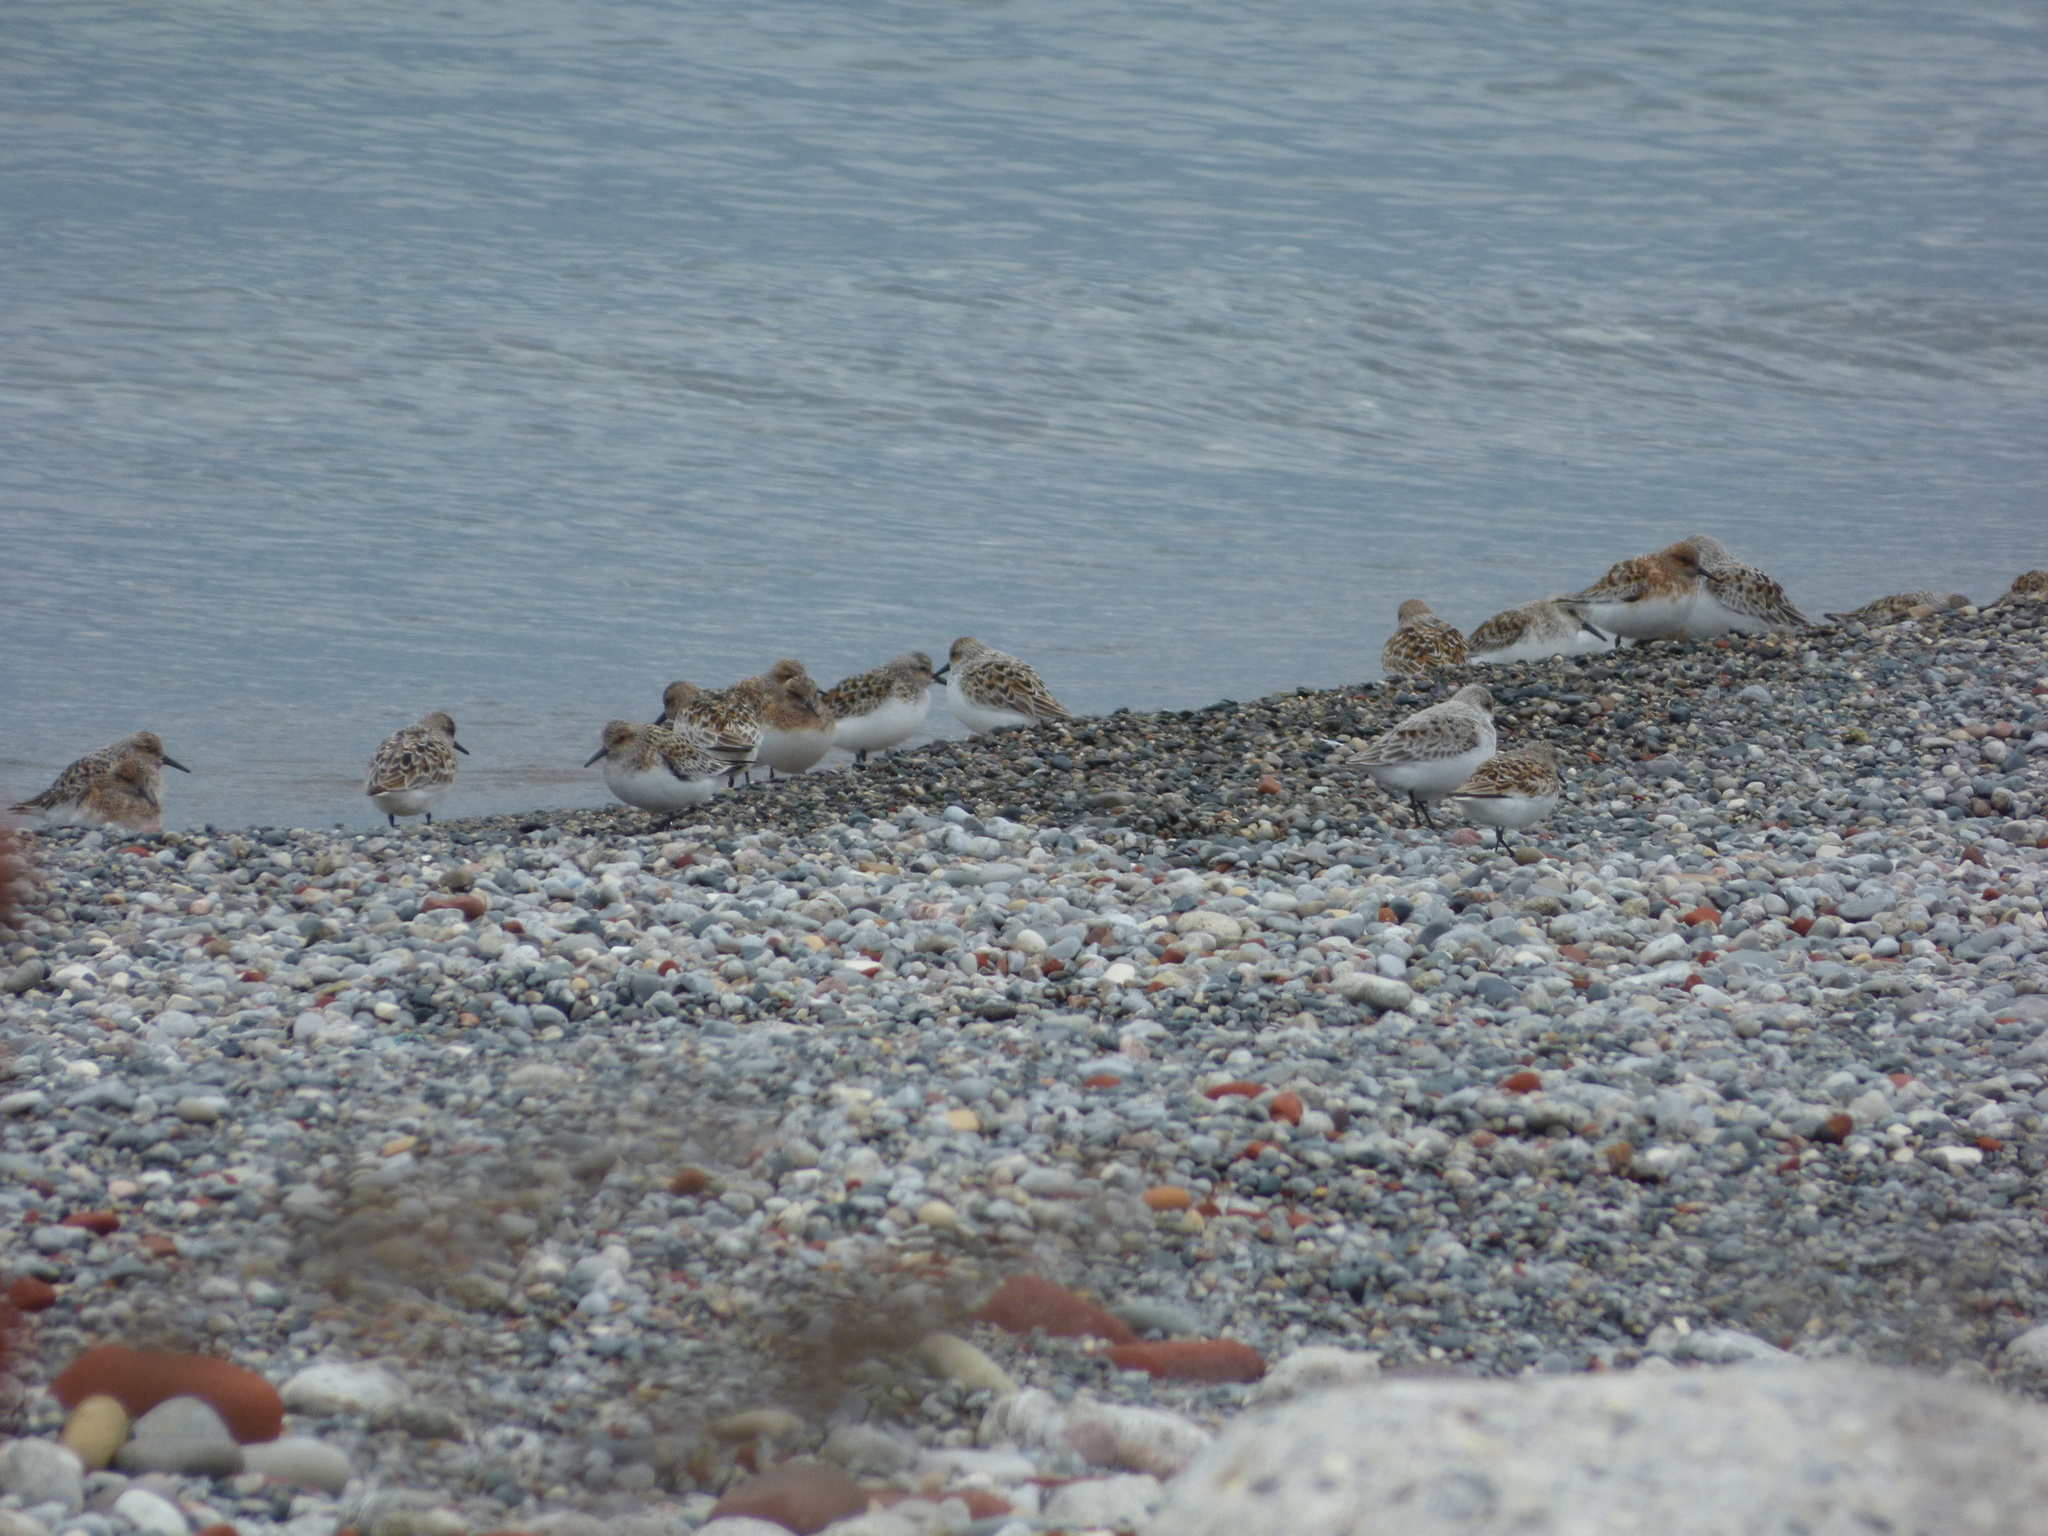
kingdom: Animalia
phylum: Chordata
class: Aves
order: Charadriiformes
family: Scolopacidae
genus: Calidris
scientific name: Calidris alba
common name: Sanderling
